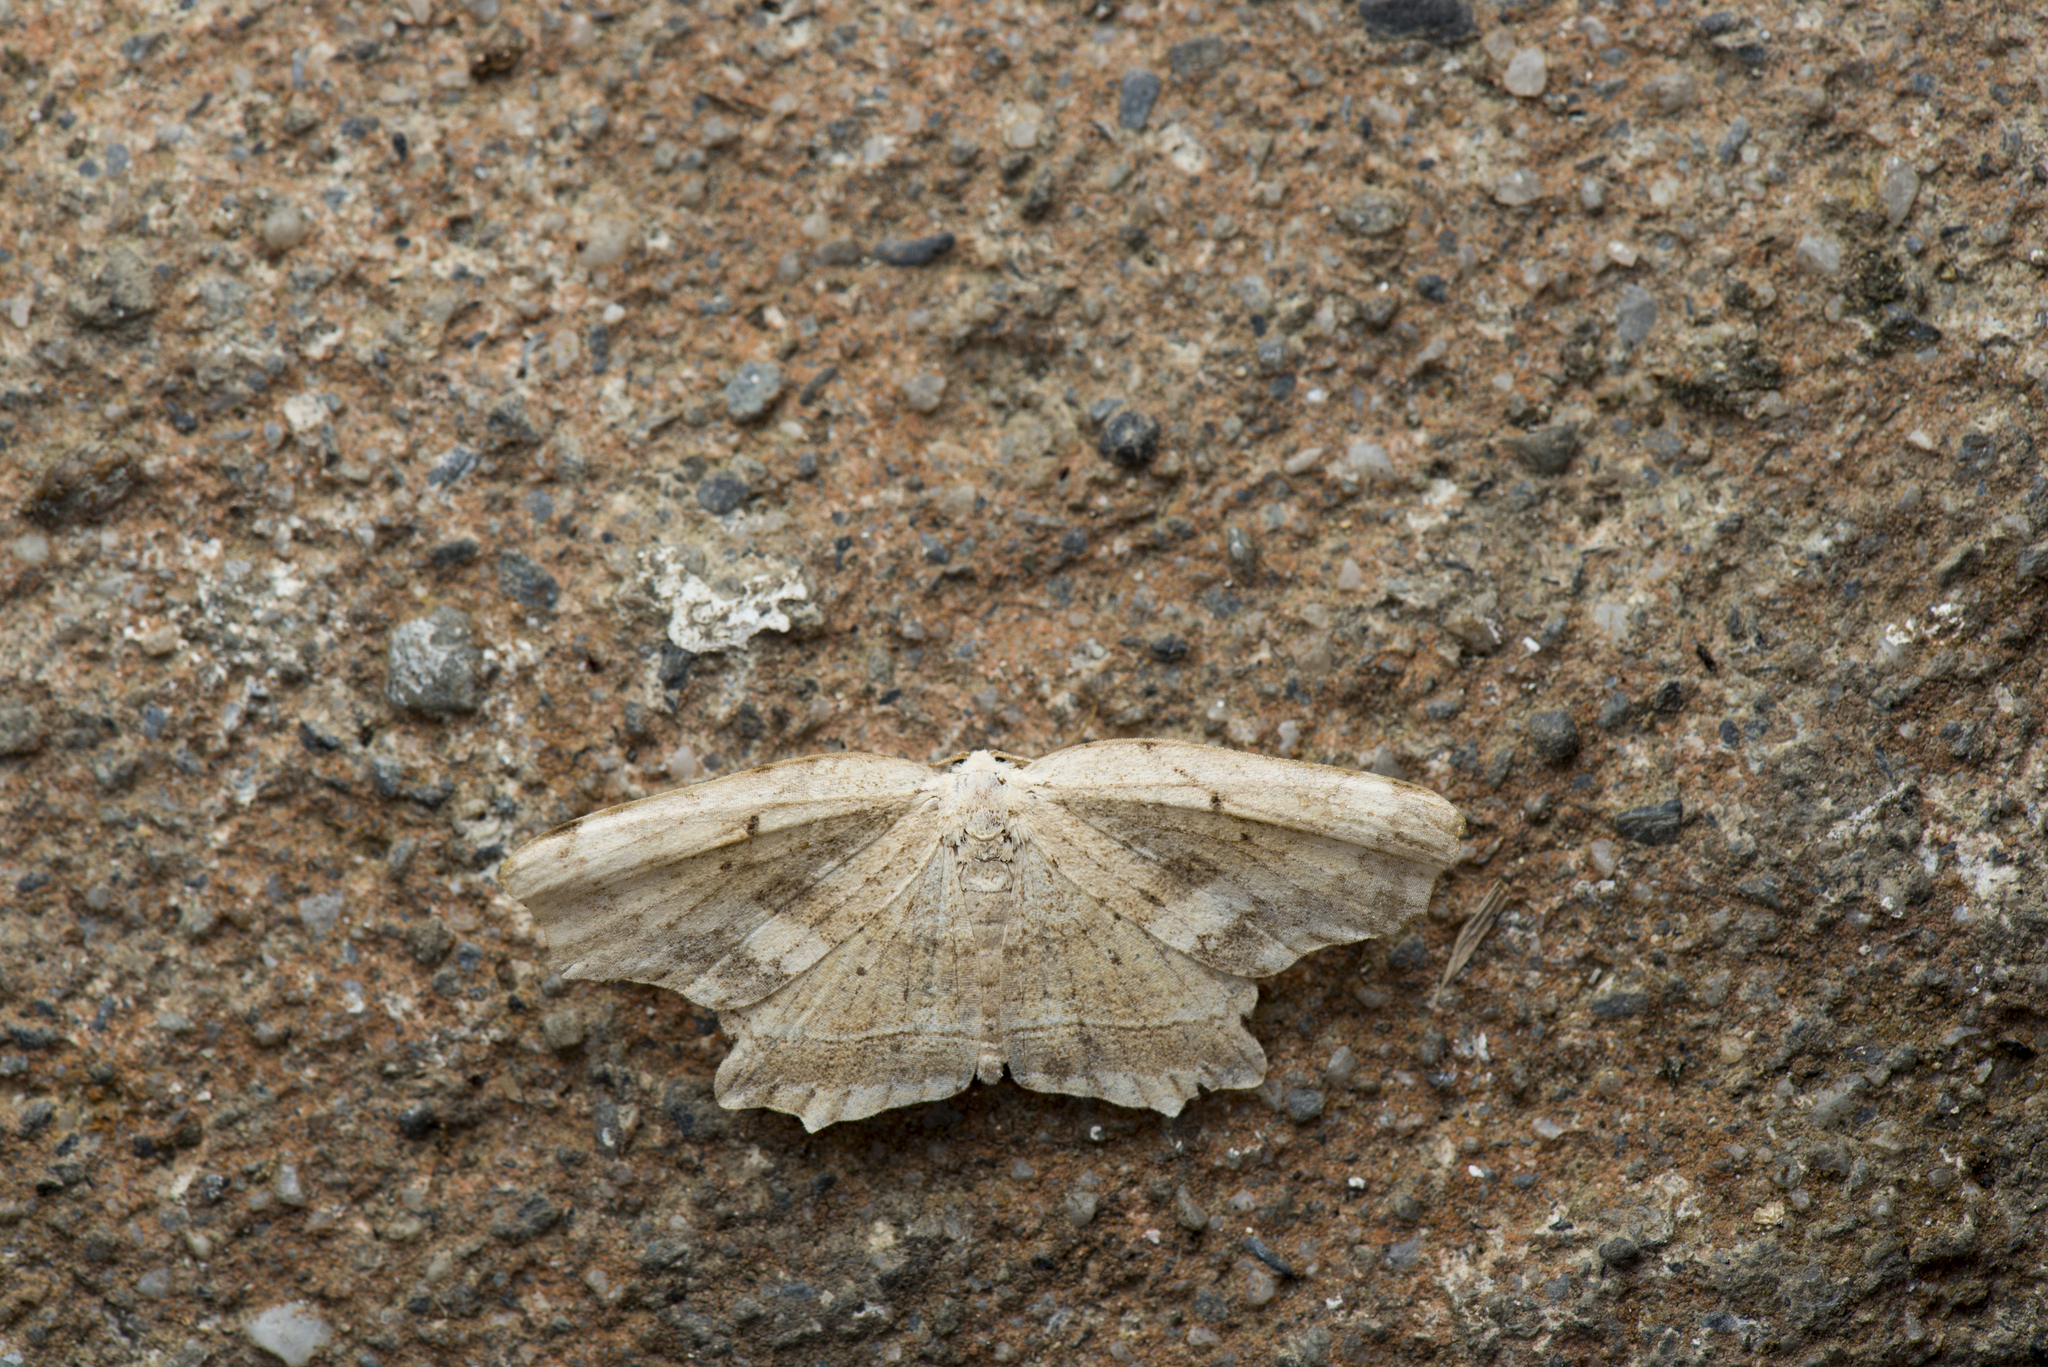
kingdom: Animalia
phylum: Arthropoda
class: Insecta
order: Lepidoptera
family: Drepanidae
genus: Phalacra
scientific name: Phalacra strigata
